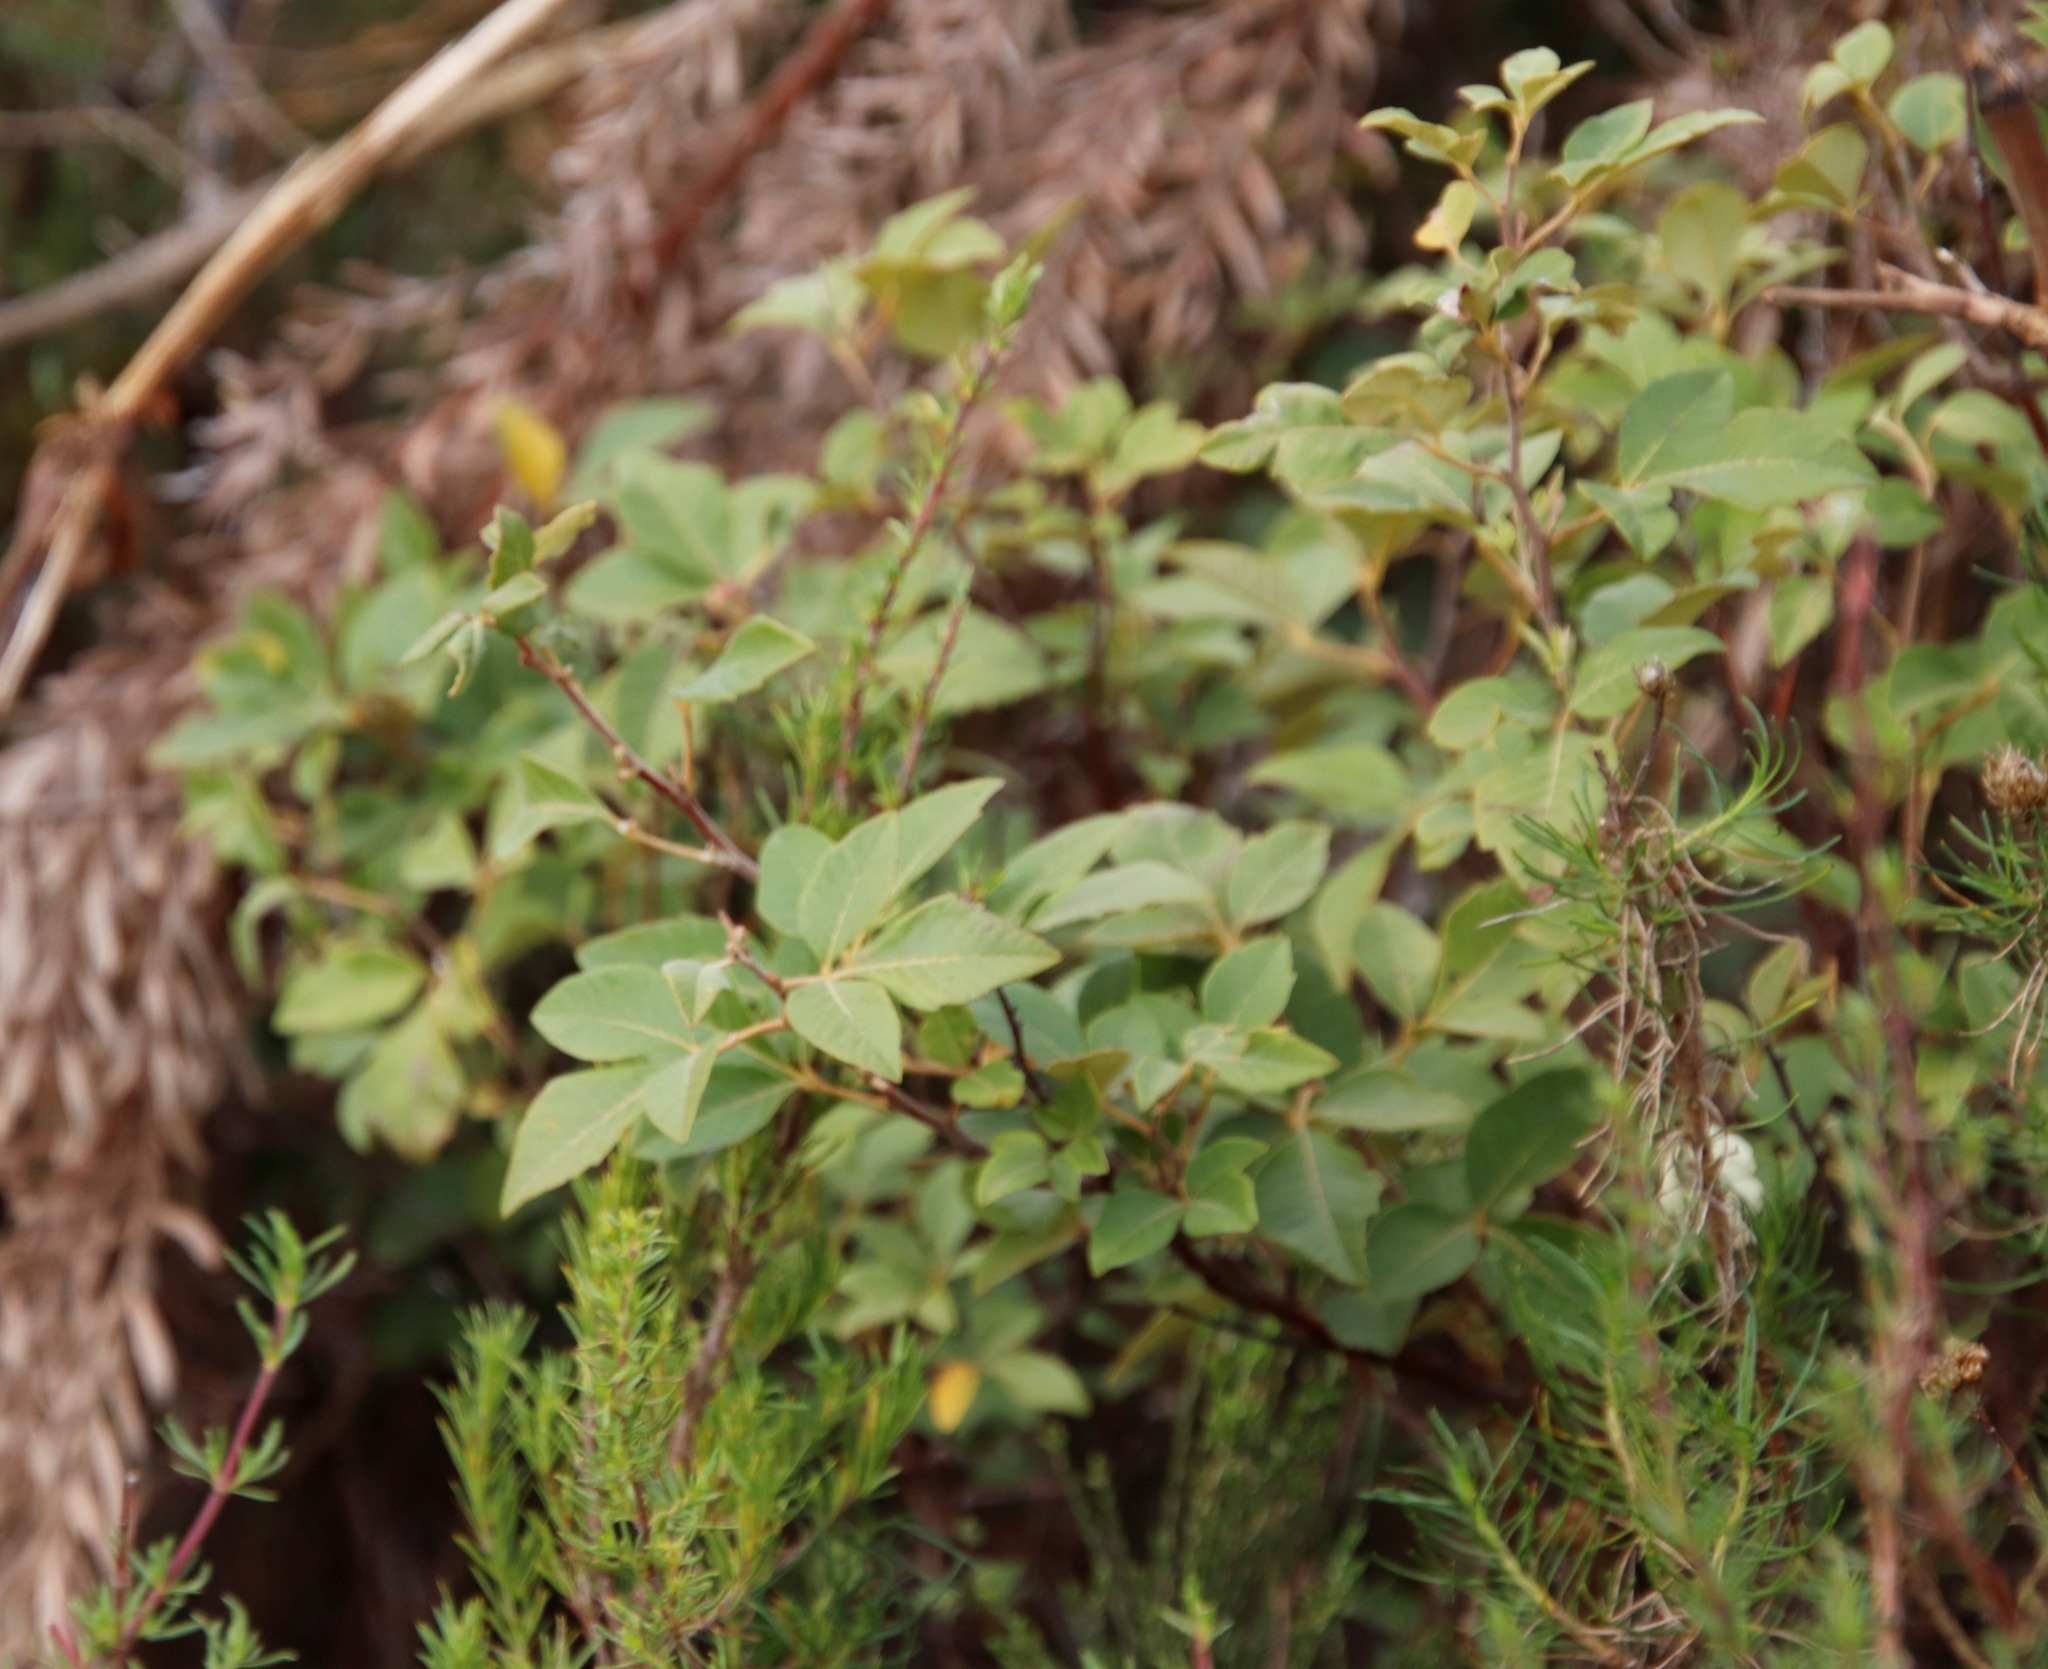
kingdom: Plantae
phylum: Tracheophyta
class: Magnoliopsida
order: Sapindales
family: Anacardiaceae
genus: Searsia
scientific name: Searsia tomentosa
